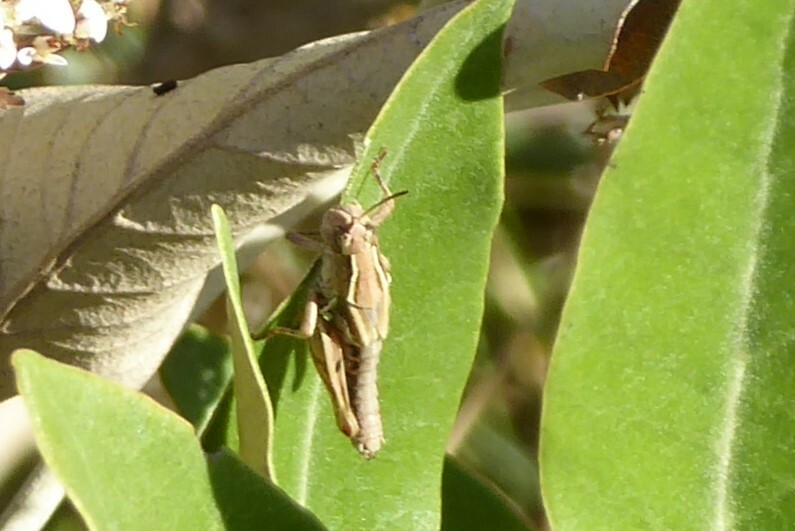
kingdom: Animalia
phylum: Arthropoda
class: Insecta
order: Orthoptera
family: Acrididae
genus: Phaulacridium
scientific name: Phaulacridium marginale
